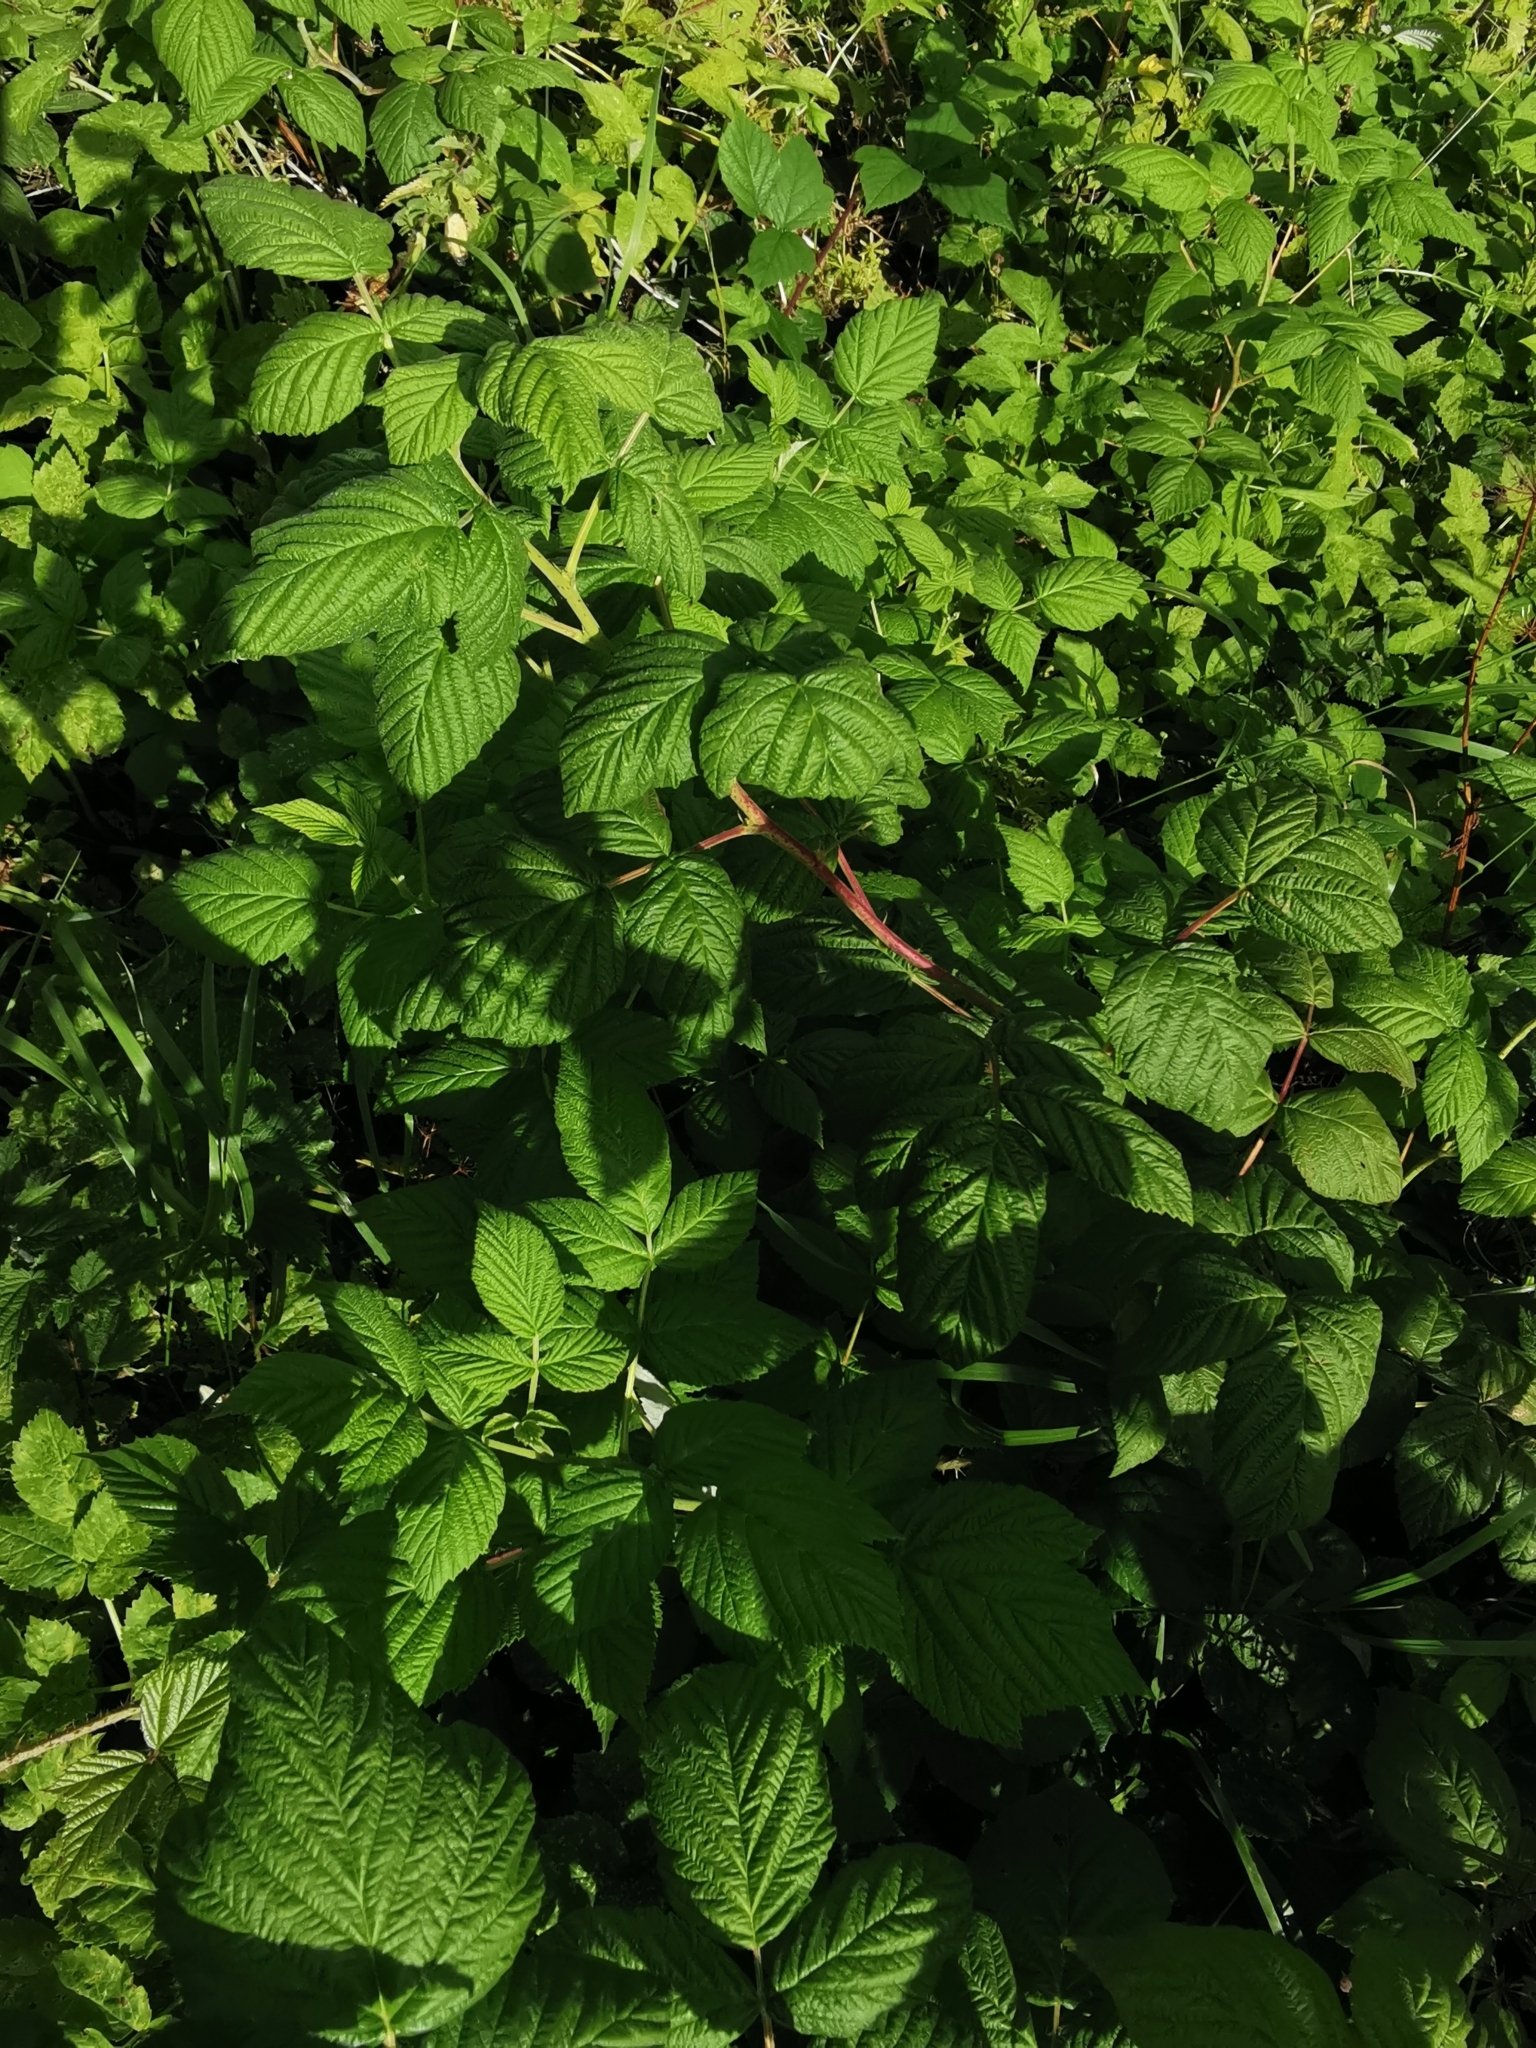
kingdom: Plantae
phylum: Tracheophyta
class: Magnoliopsida
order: Rosales
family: Rosaceae
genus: Rubus
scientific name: Rubus idaeus
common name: Raspberry
